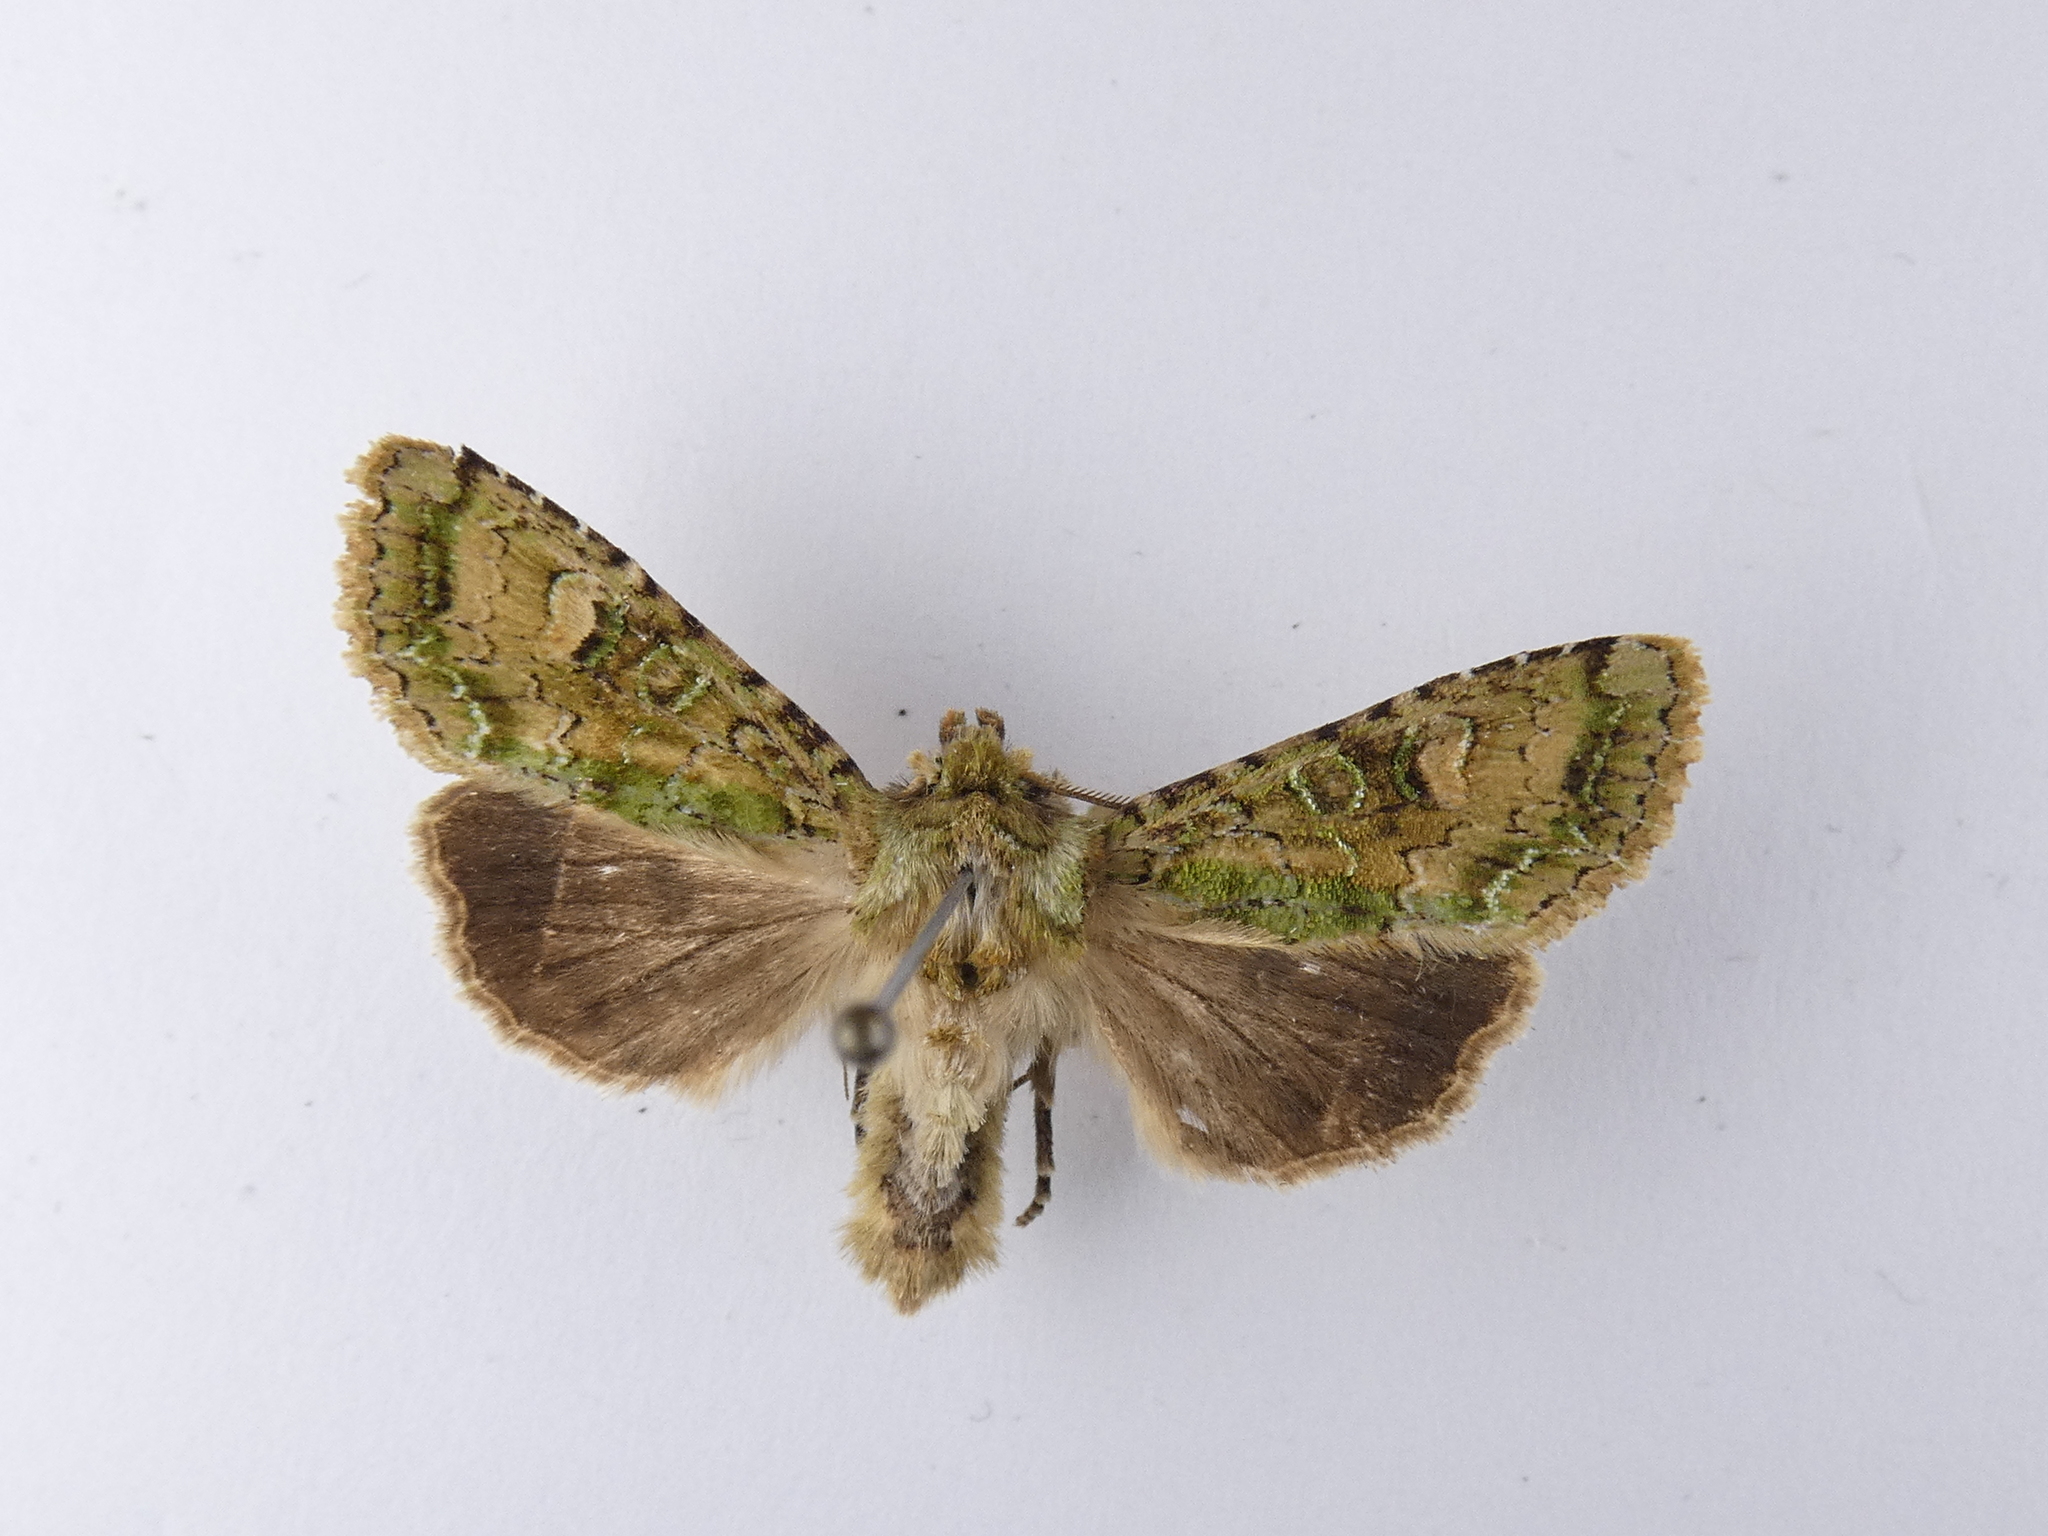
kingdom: Animalia
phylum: Arthropoda
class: Insecta
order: Lepidoptera
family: Noctuidae
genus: Ichneutica
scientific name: Ichneutica
